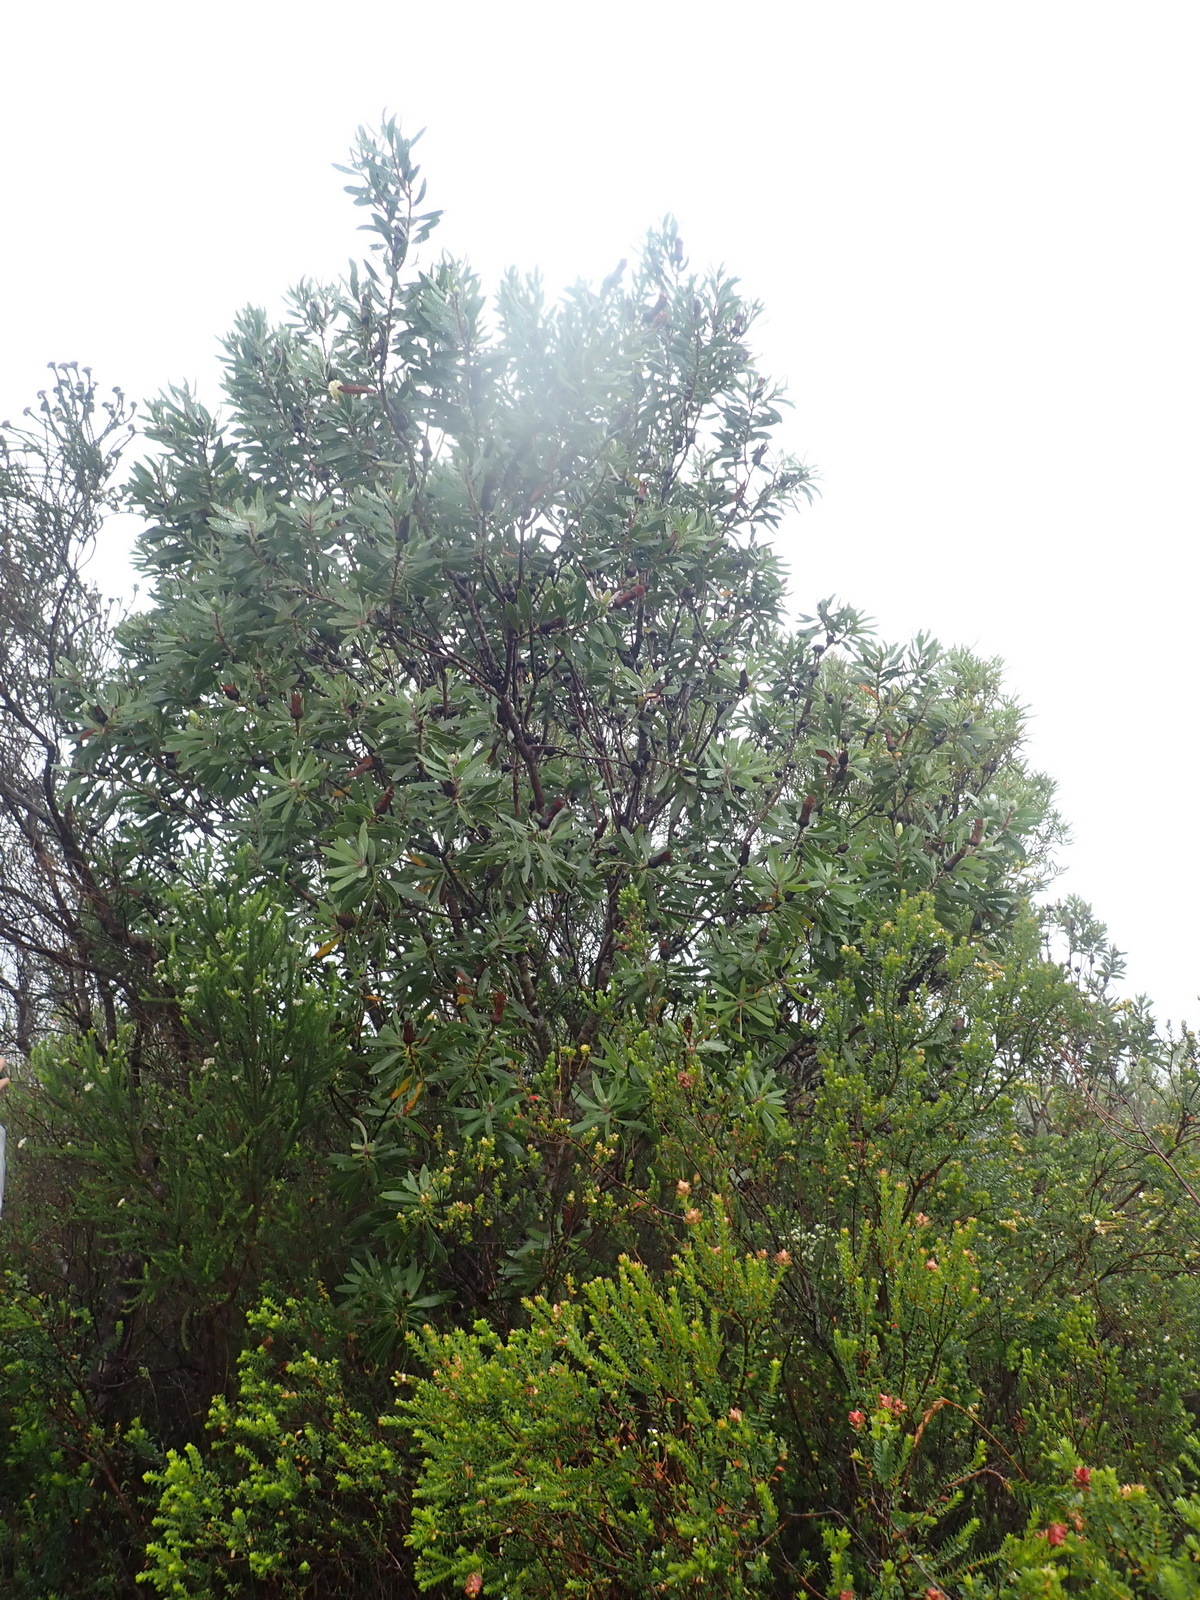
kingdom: Plantae
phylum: Tracheophyta
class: Magnoliopsida
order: Proteales
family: Proteaceae
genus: Protea
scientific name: Protea mundii
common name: Forest sugarbush
